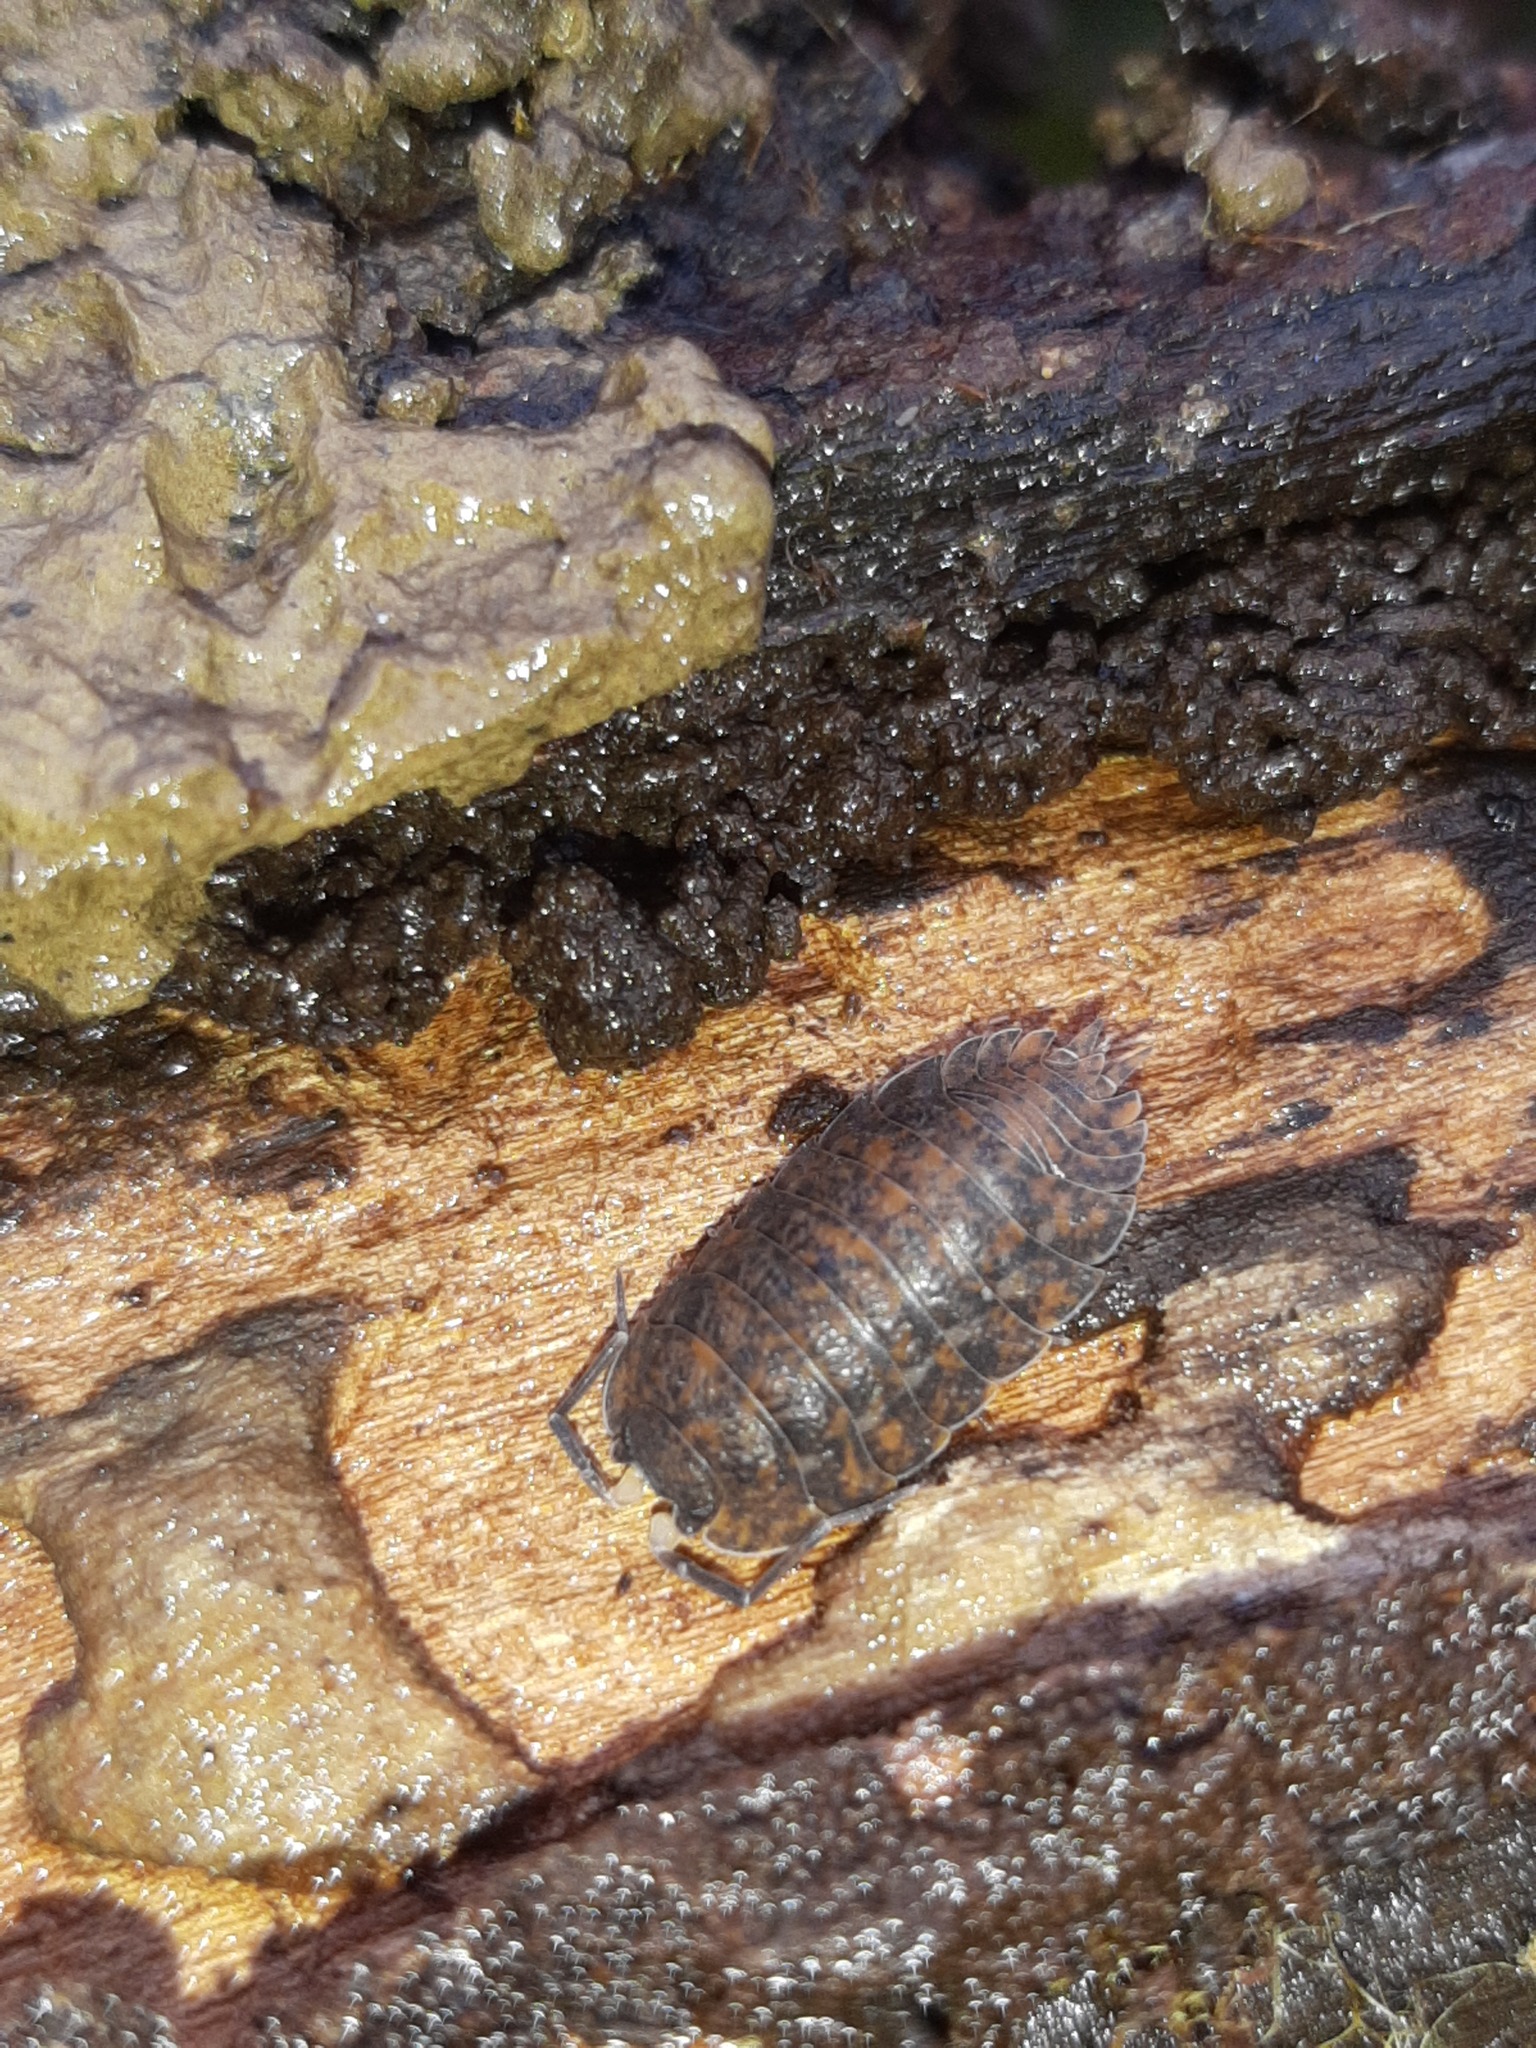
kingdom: Animalia
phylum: Arthropoda
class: Malacostraca
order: Isopoda
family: Trachelipodidae
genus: Trachelipus
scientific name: Trachelipus rathkii
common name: Isopod
